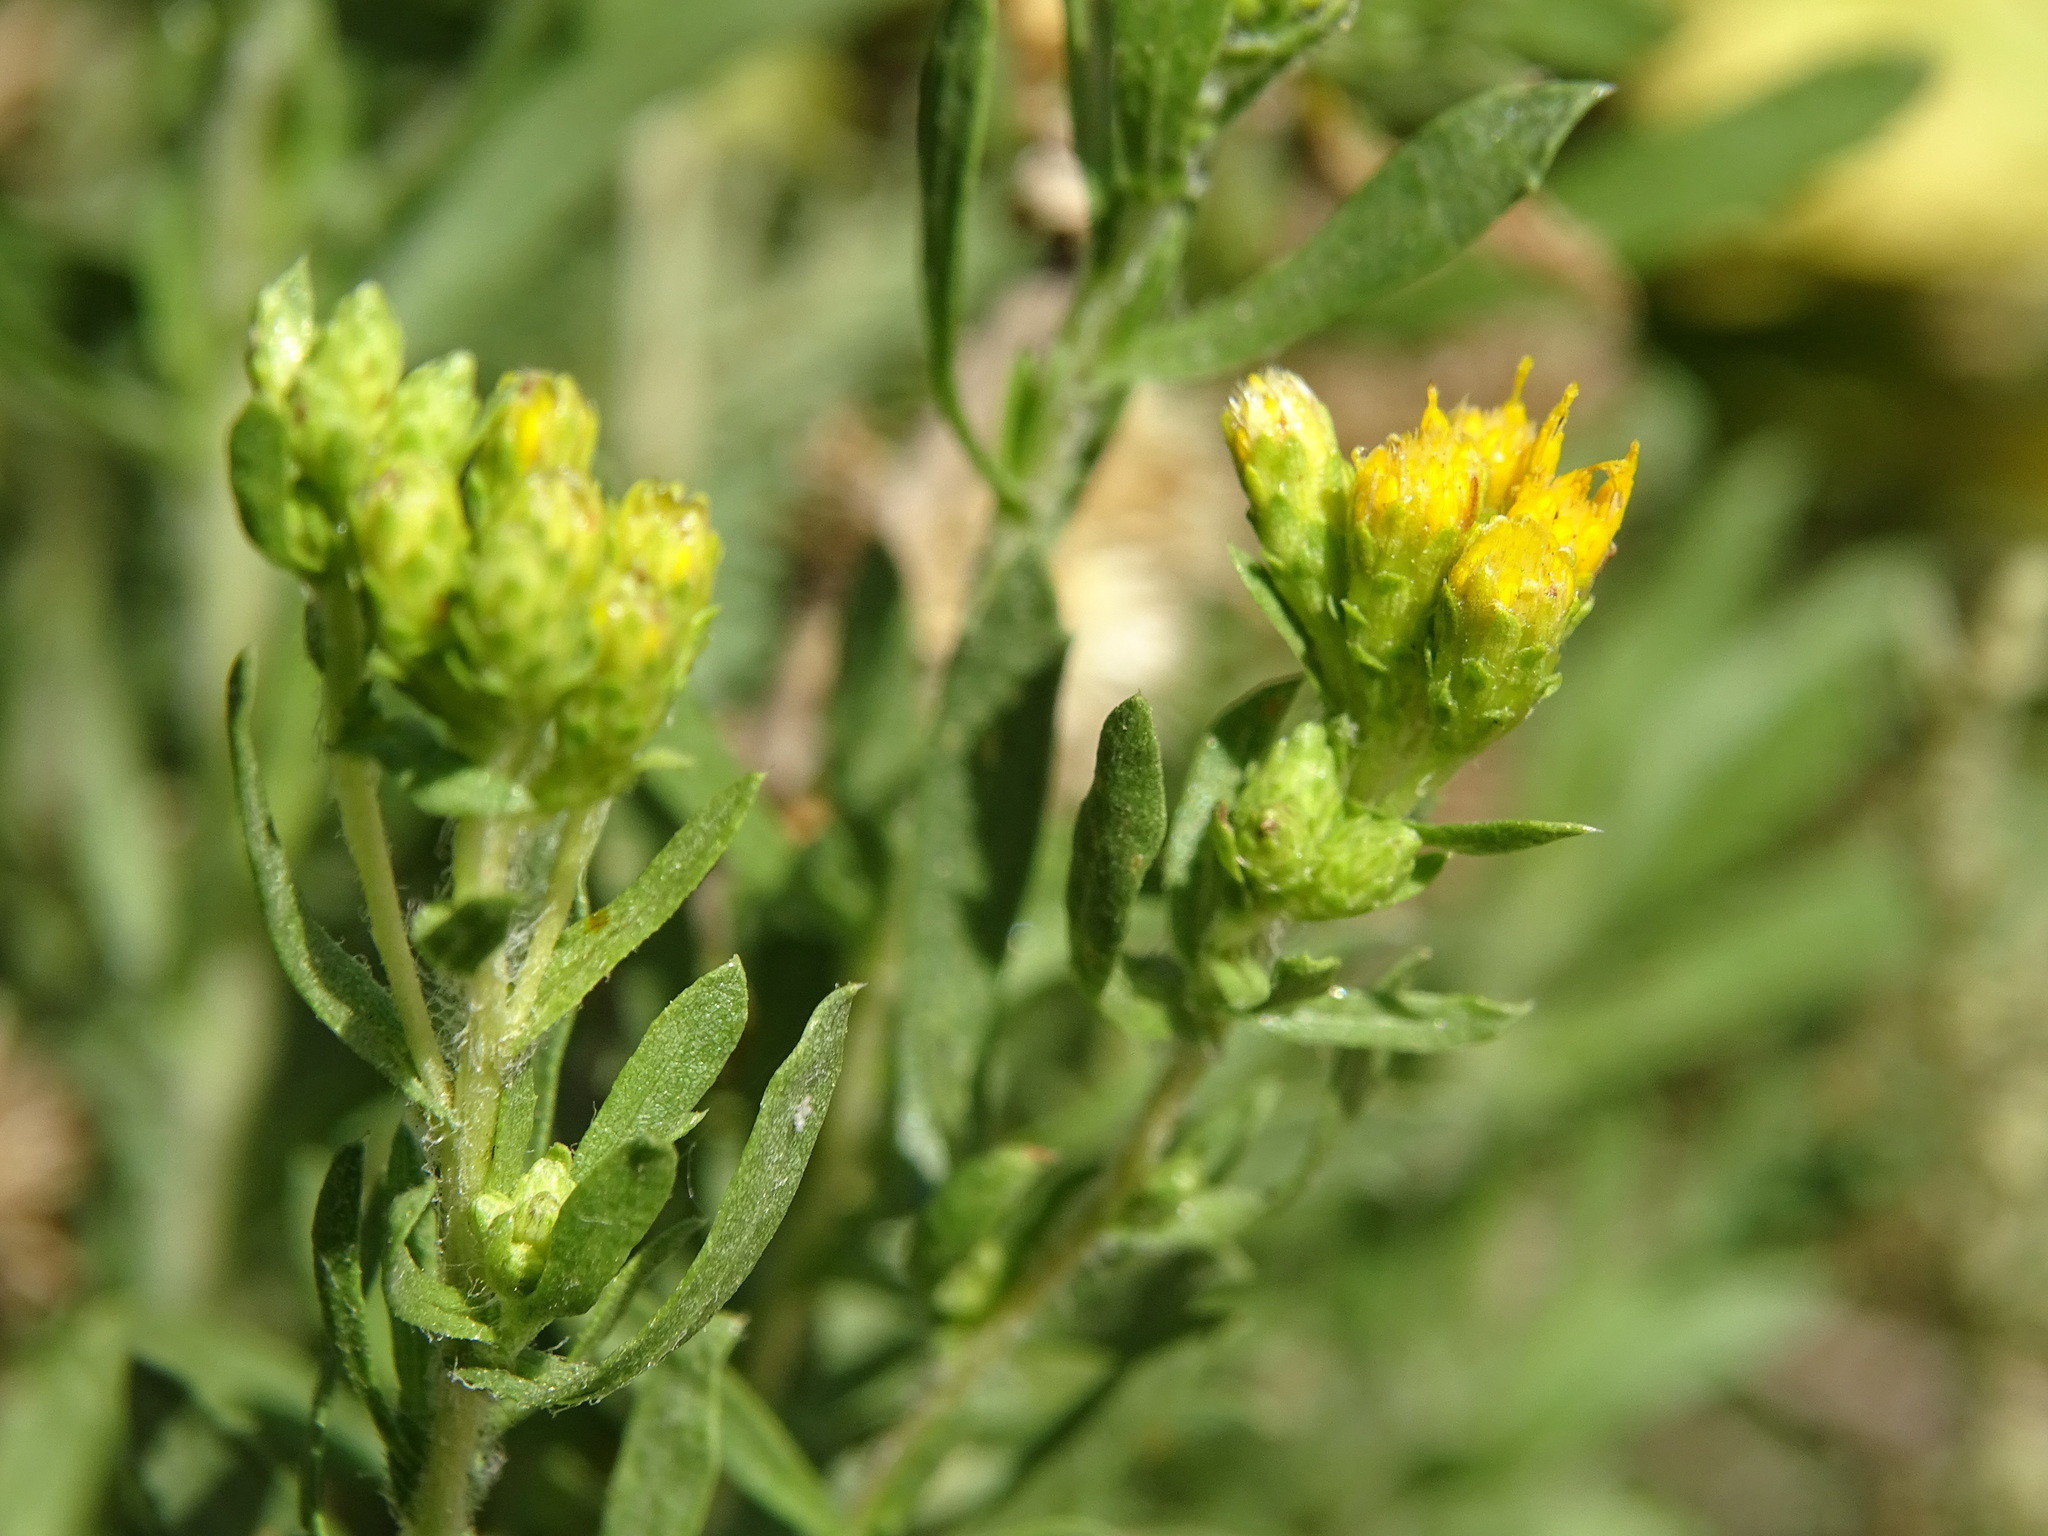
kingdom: Plantae
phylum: Tracheophyta
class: Magnoliopsida
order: Asterales
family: Asteraceae
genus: Isocoma
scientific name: Isocoma menziesii
